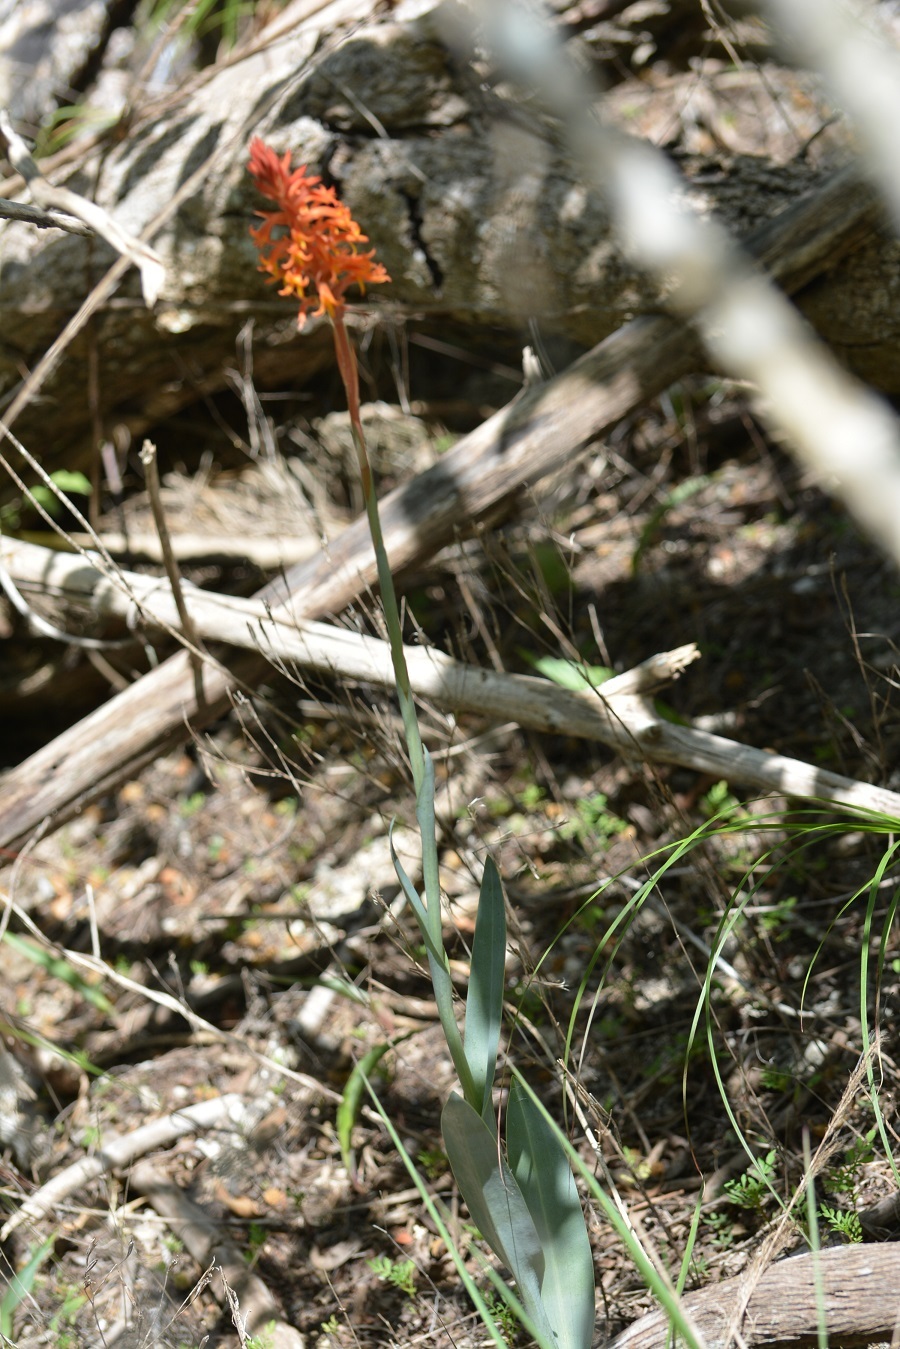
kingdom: Plantae
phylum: Tracheophyta
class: Liliopsida
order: Asparagales
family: Orchidaceae
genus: Dichromanthus
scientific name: Dichromanthus cinnabarinus
